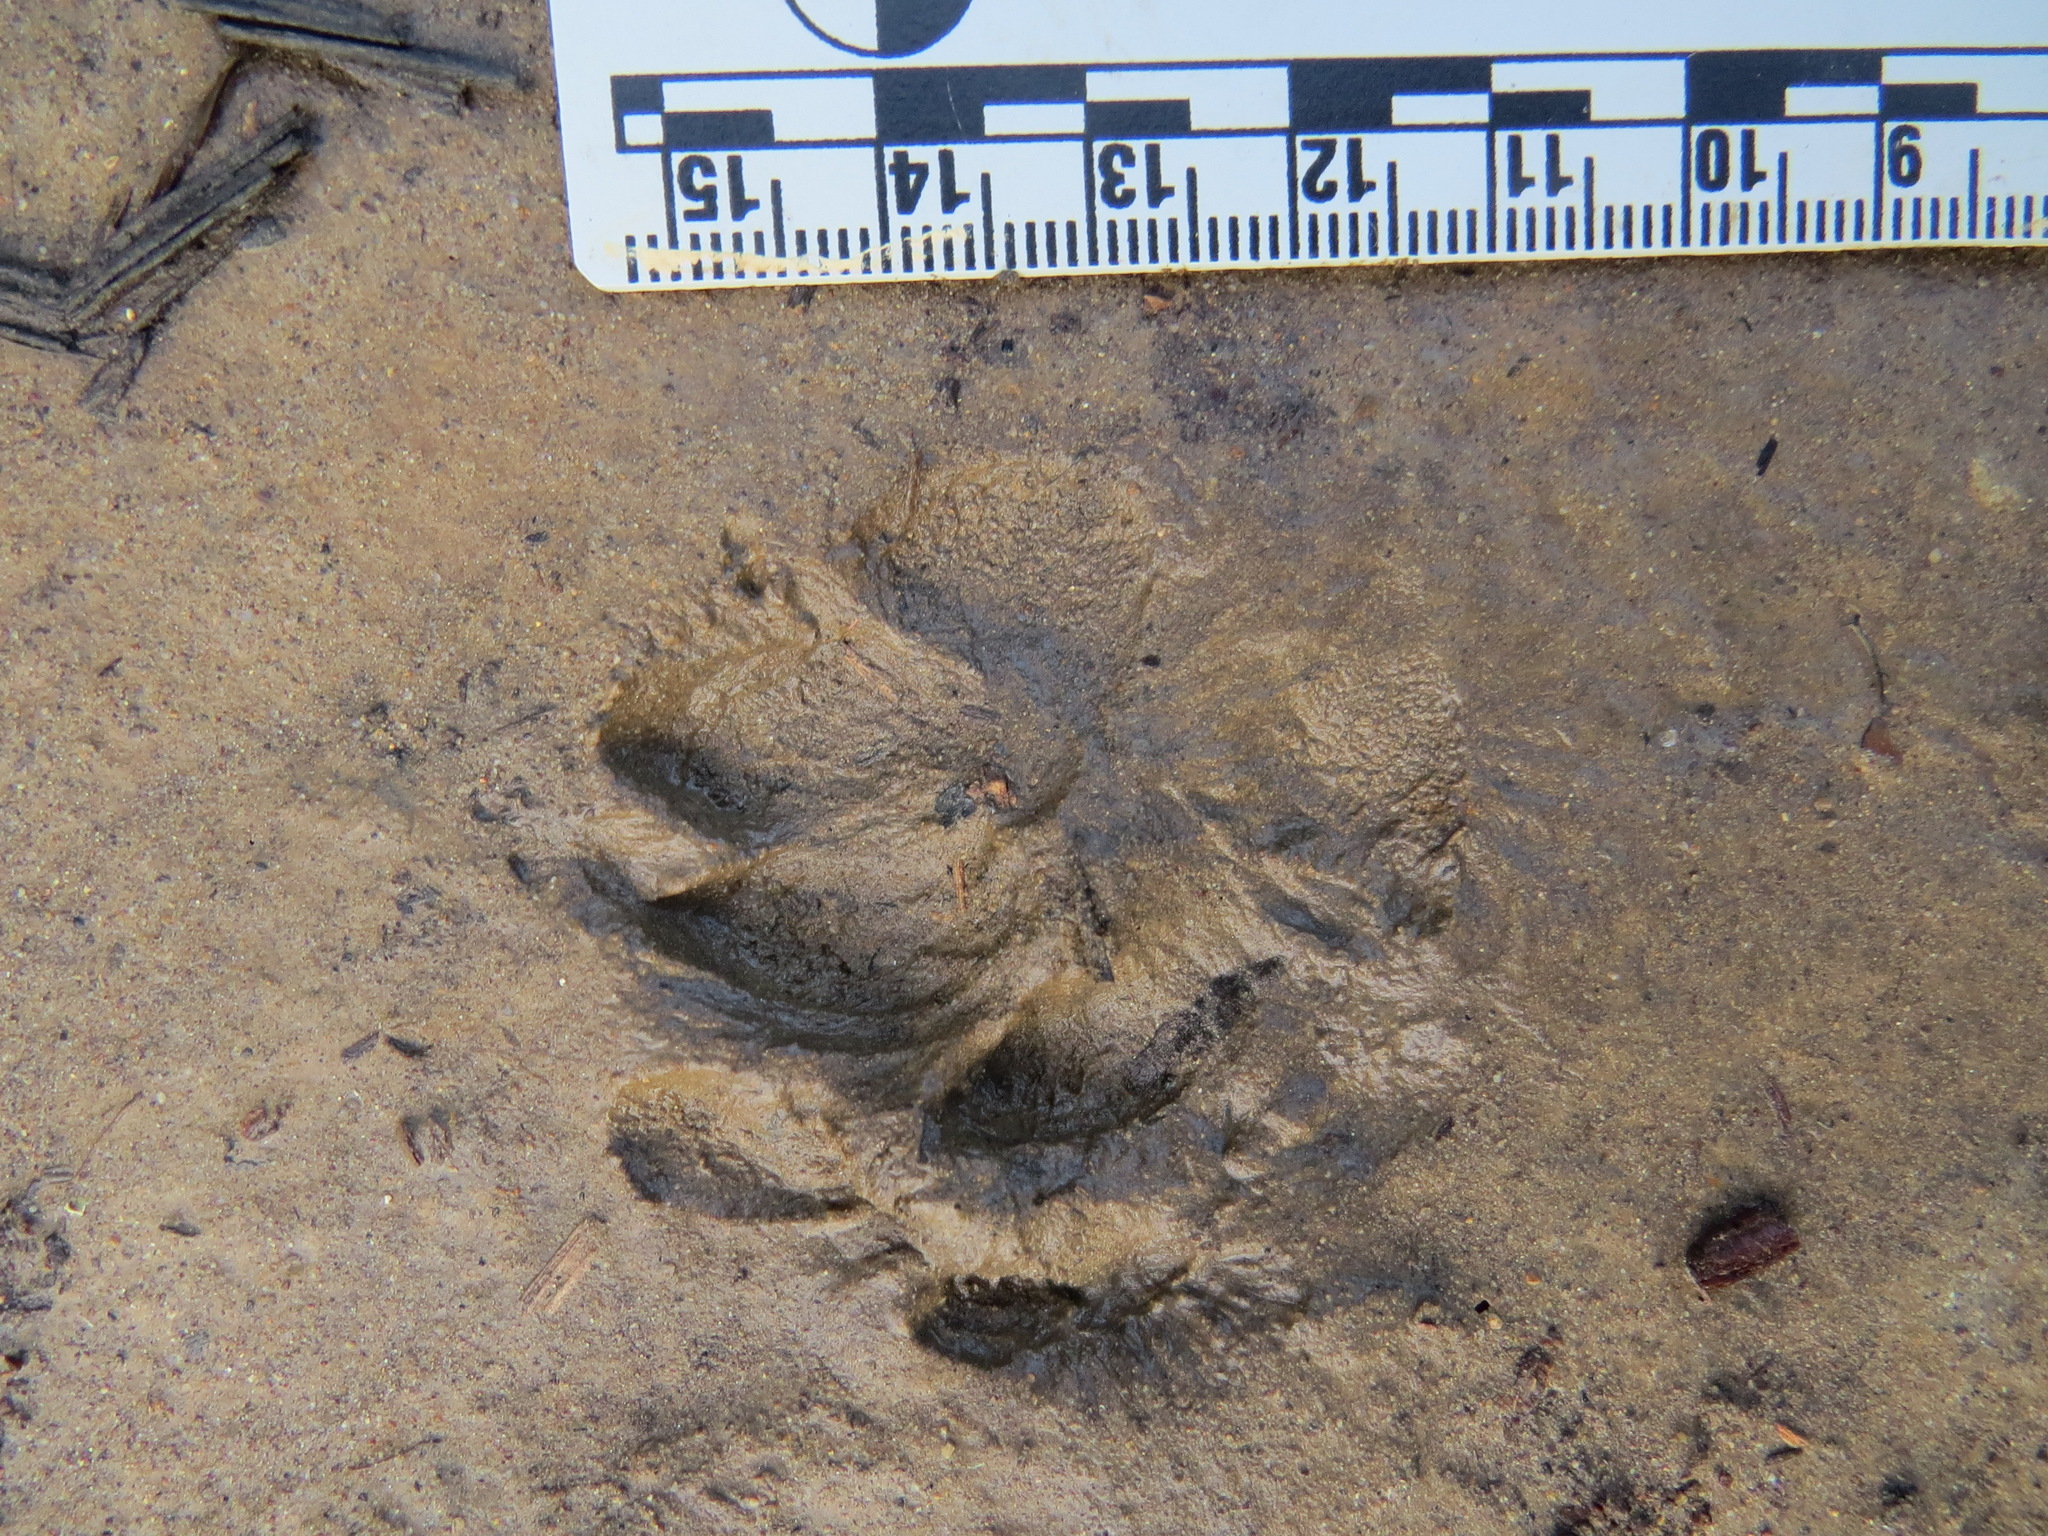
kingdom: Animalia
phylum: Chordata
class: Mammalia
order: Carnivora
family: Canidae
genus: Urocyon
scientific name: Urocyon cinereoargenteus
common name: Gray fox
